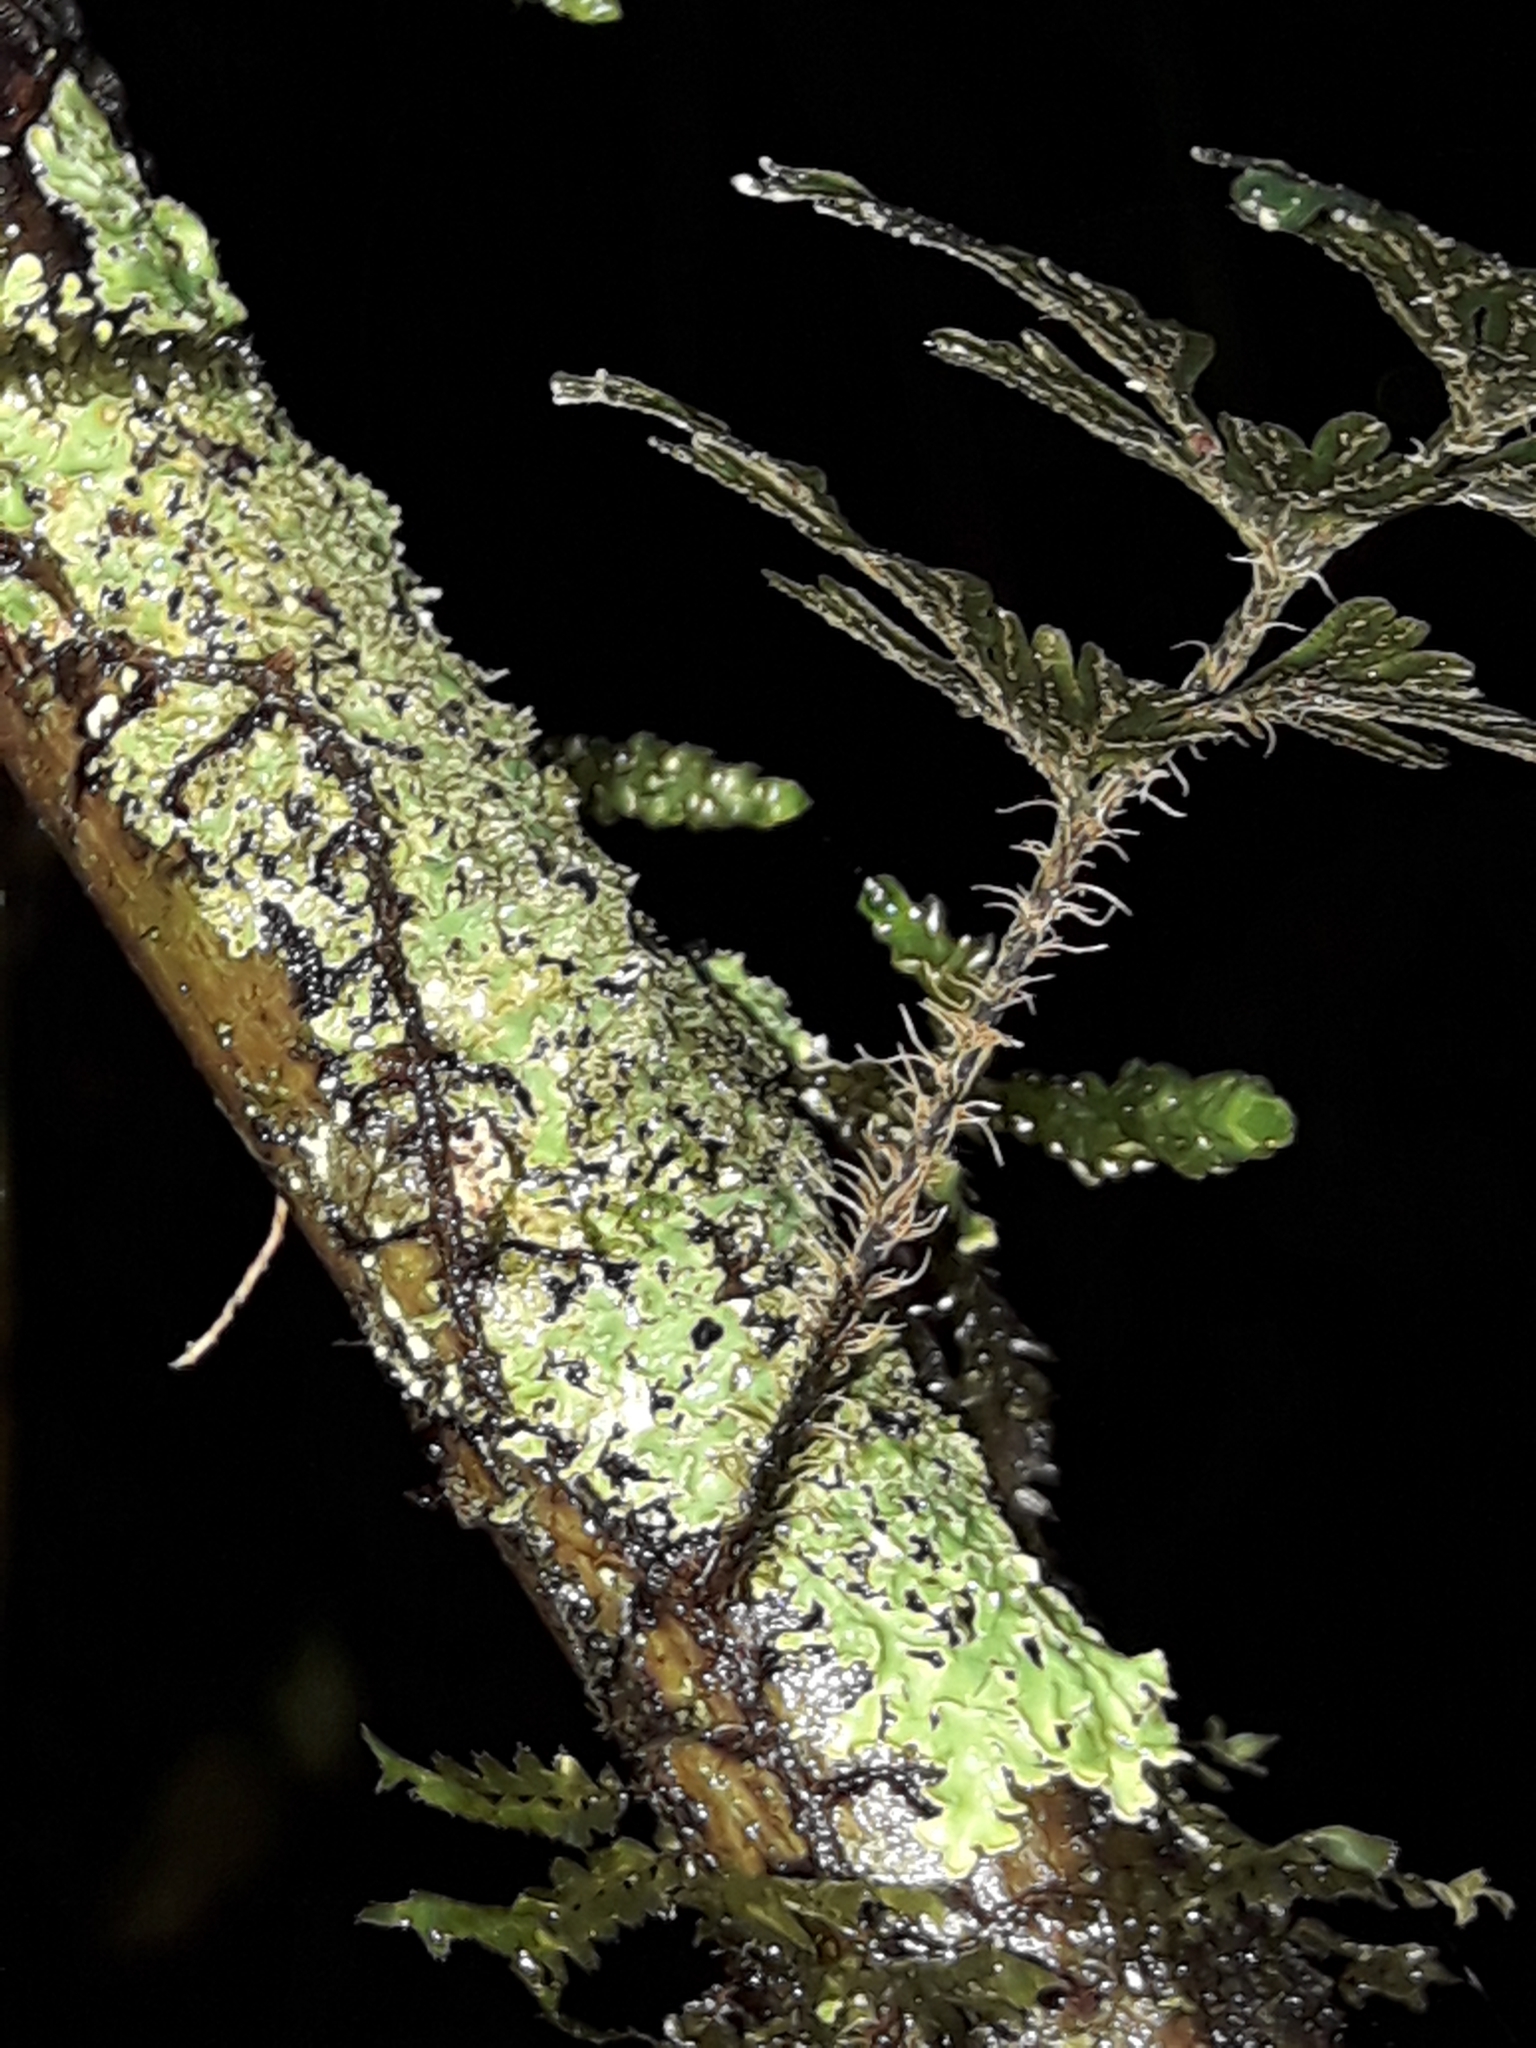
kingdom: Plantae
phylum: Tracheophyta
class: Polypodiopsida
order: Hymenophyllales
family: Hymenophyllaceae
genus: Hymenophyllum
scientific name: Hymenophyllum scabrum
